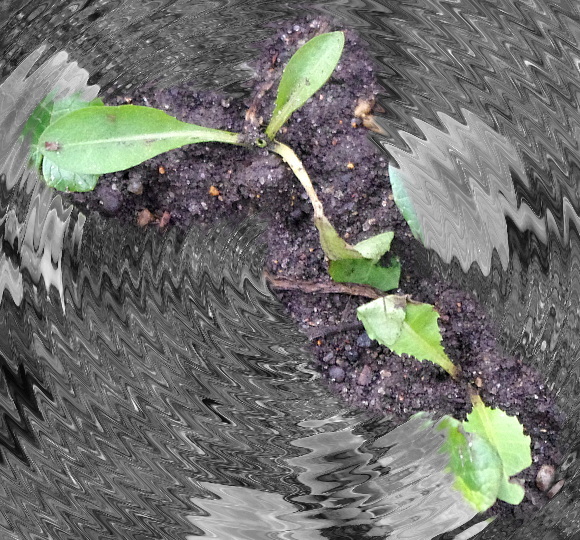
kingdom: Plantae
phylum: Tracheophyta
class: Magnoliopsida
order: Asterales
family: Asteraceae
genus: Taraxacum
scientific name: Taraxacum officinale
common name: Common dandelion
